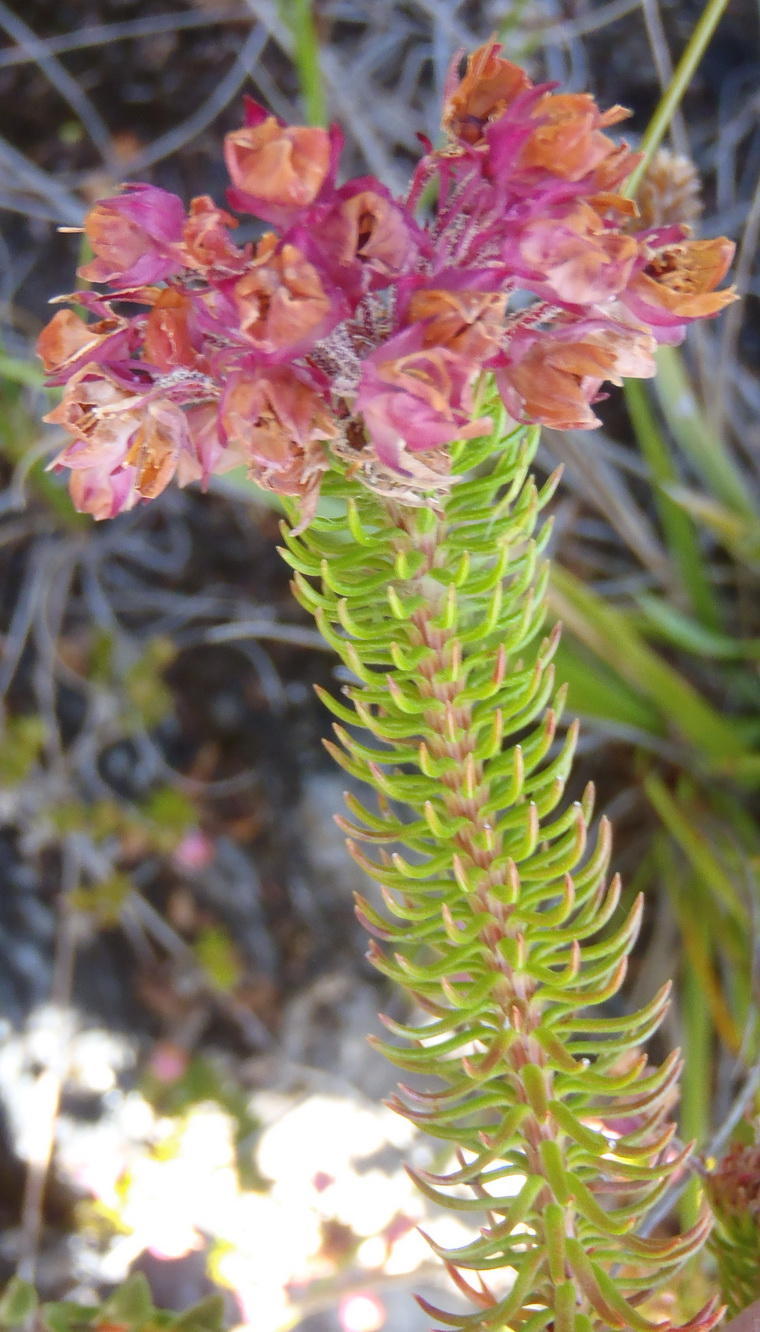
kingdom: Plantae
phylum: Tracheophyta
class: Magnoliopsida
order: Ericales
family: Ericaceae
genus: Erica
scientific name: Erica cubica
